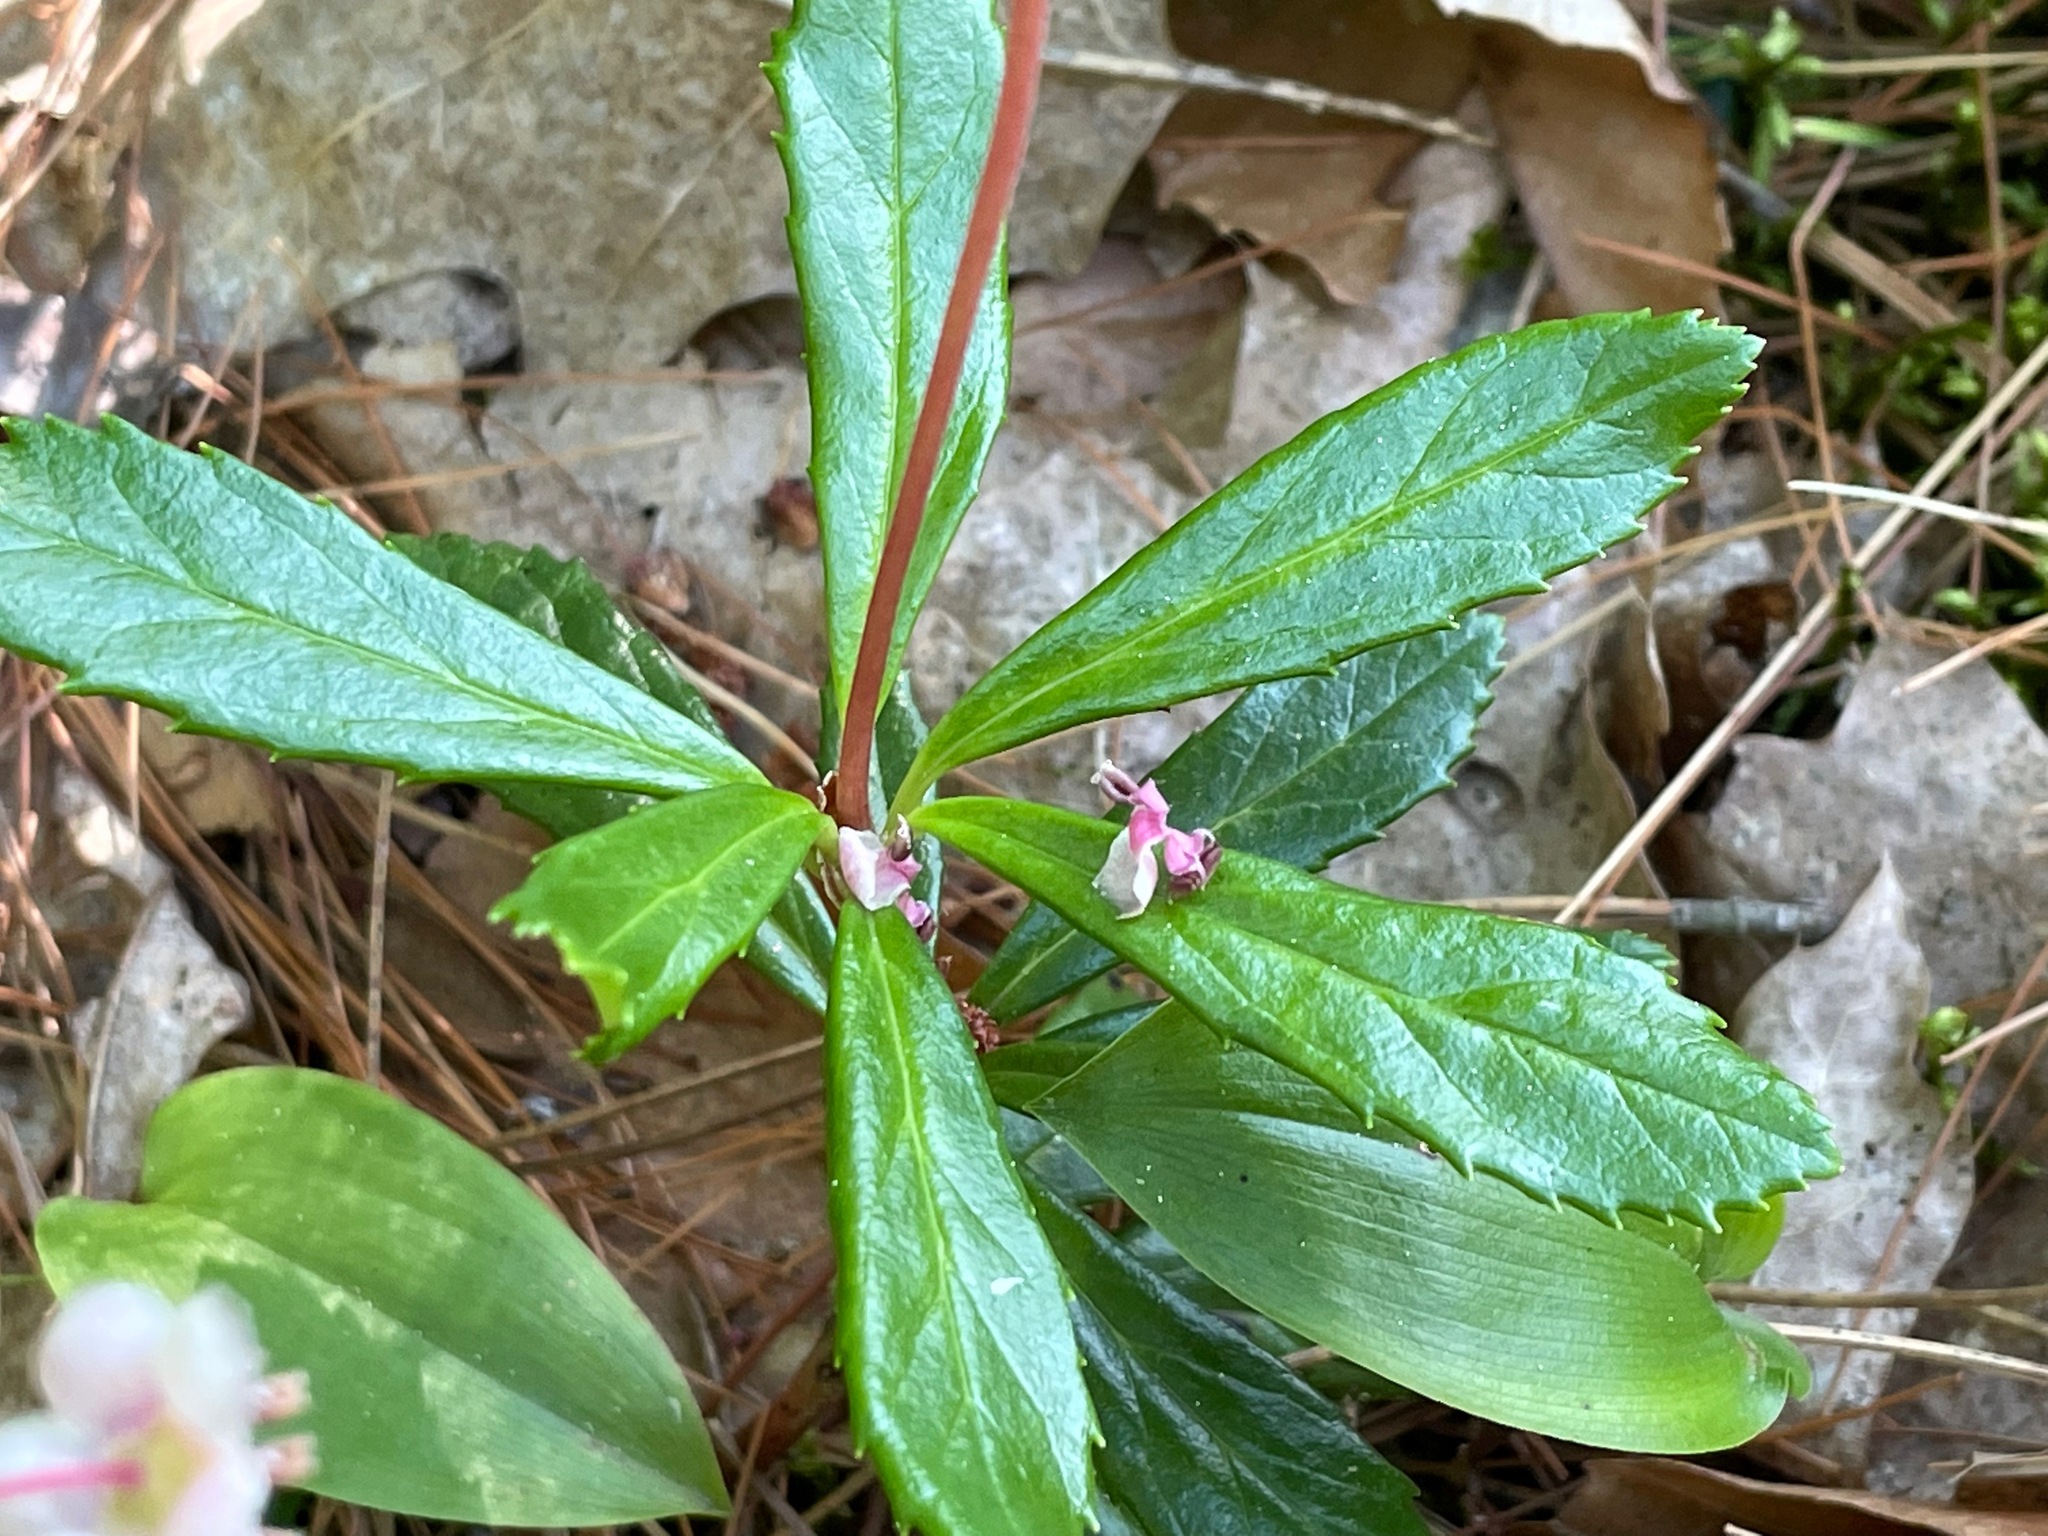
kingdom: Plantae
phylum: Tracheophyta
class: Magnoliopsida
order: Ericales
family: Ericaceae
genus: Chimaphila
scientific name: Chimaphila umbellata
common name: Pipsissewa
